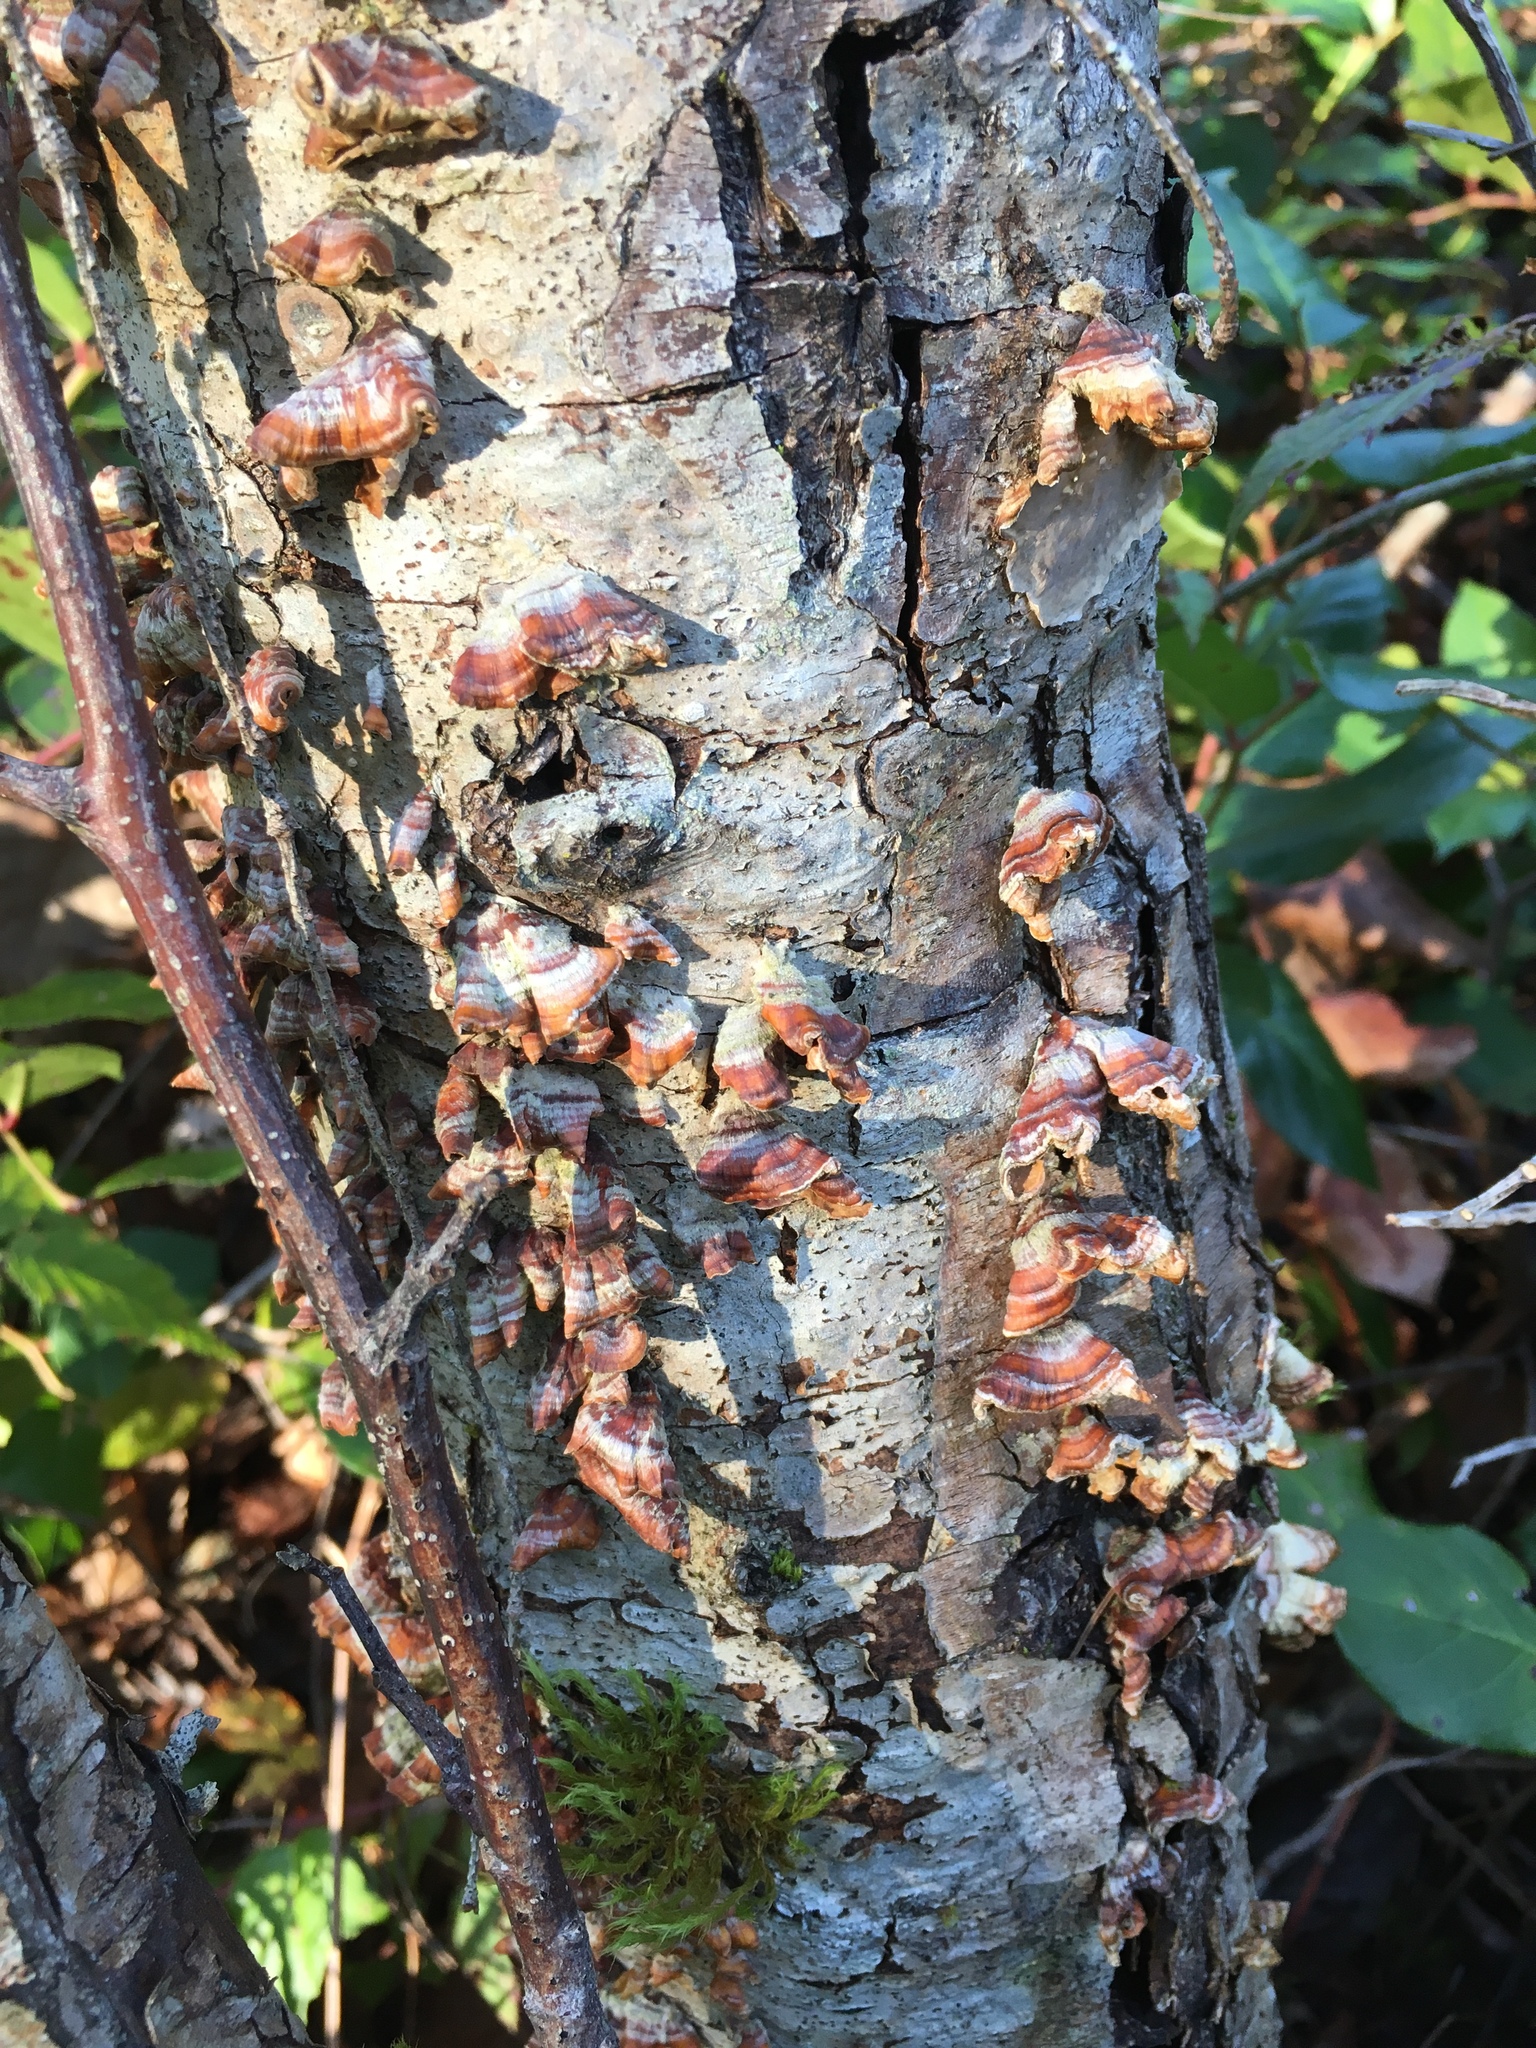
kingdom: Fungi
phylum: Basidiomycota
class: Agaricomycetes
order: Russulales
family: Stereaceae
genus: Stereum
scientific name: Stereum subtomentosum
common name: Yellowing curtain crust
